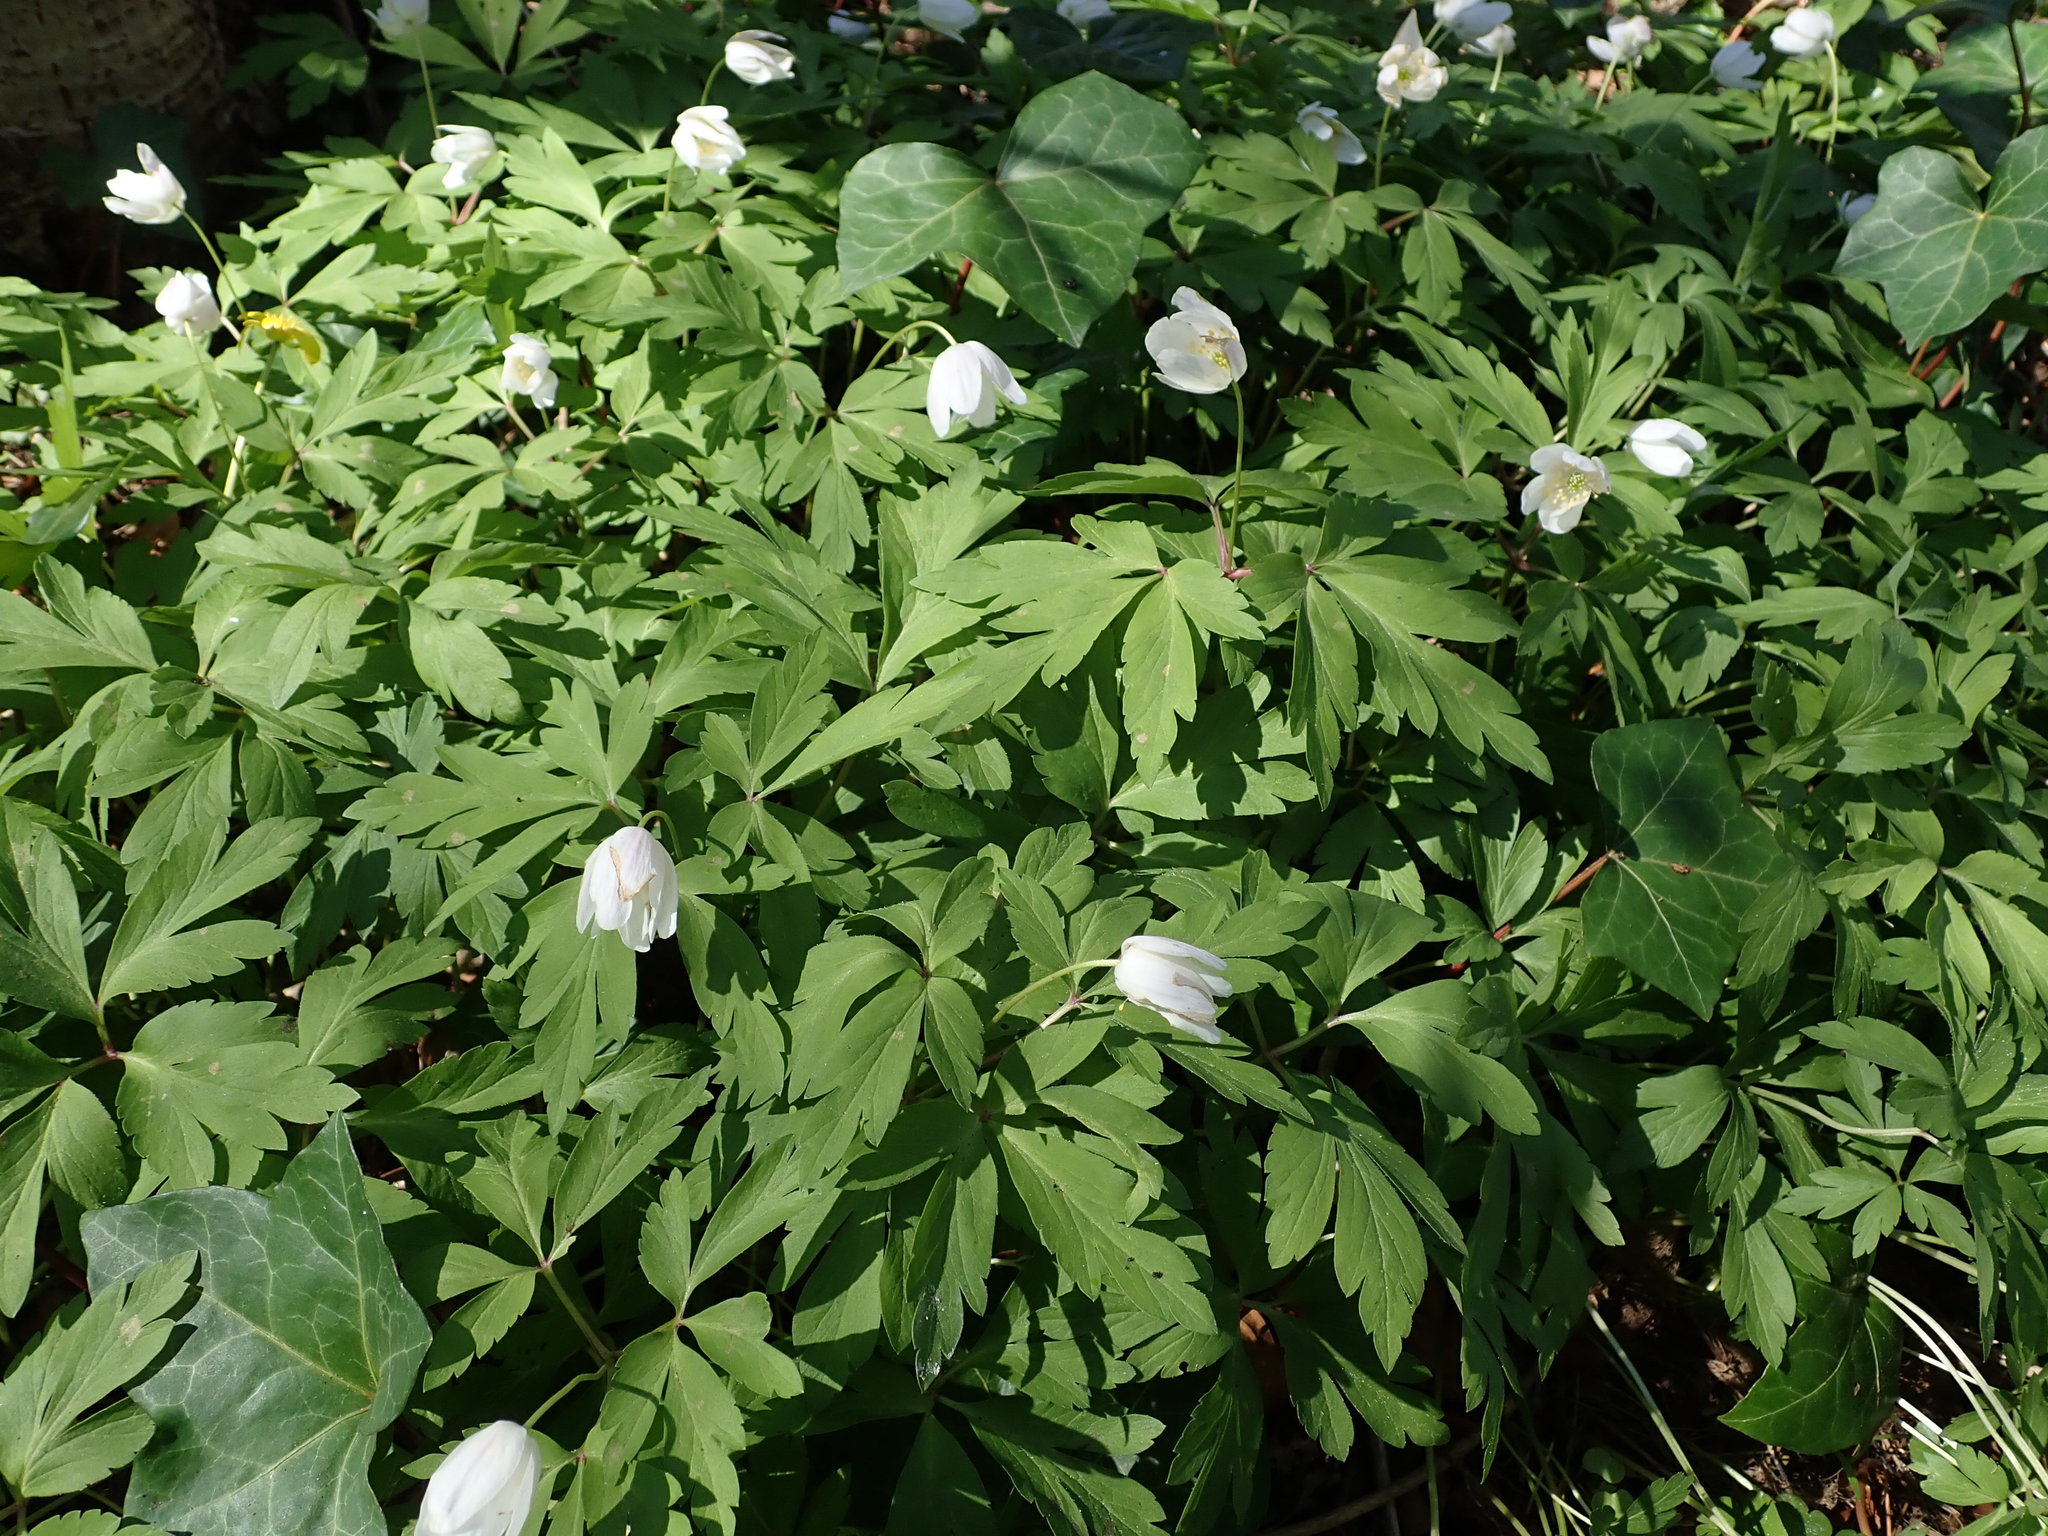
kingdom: Plantae
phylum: Tracheophyta
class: Magnoliopsida
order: Ranunculales
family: Ranunculaceae
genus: Anemone
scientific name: Anemone nemorosa
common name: Wood anemone
